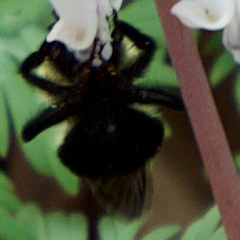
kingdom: Animalia
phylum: Arthropoda
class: Insecta
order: Hymenoptera
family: Apidae
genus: Bombus
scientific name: Bombus bimaculatus
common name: Two-spotted bumble bee
